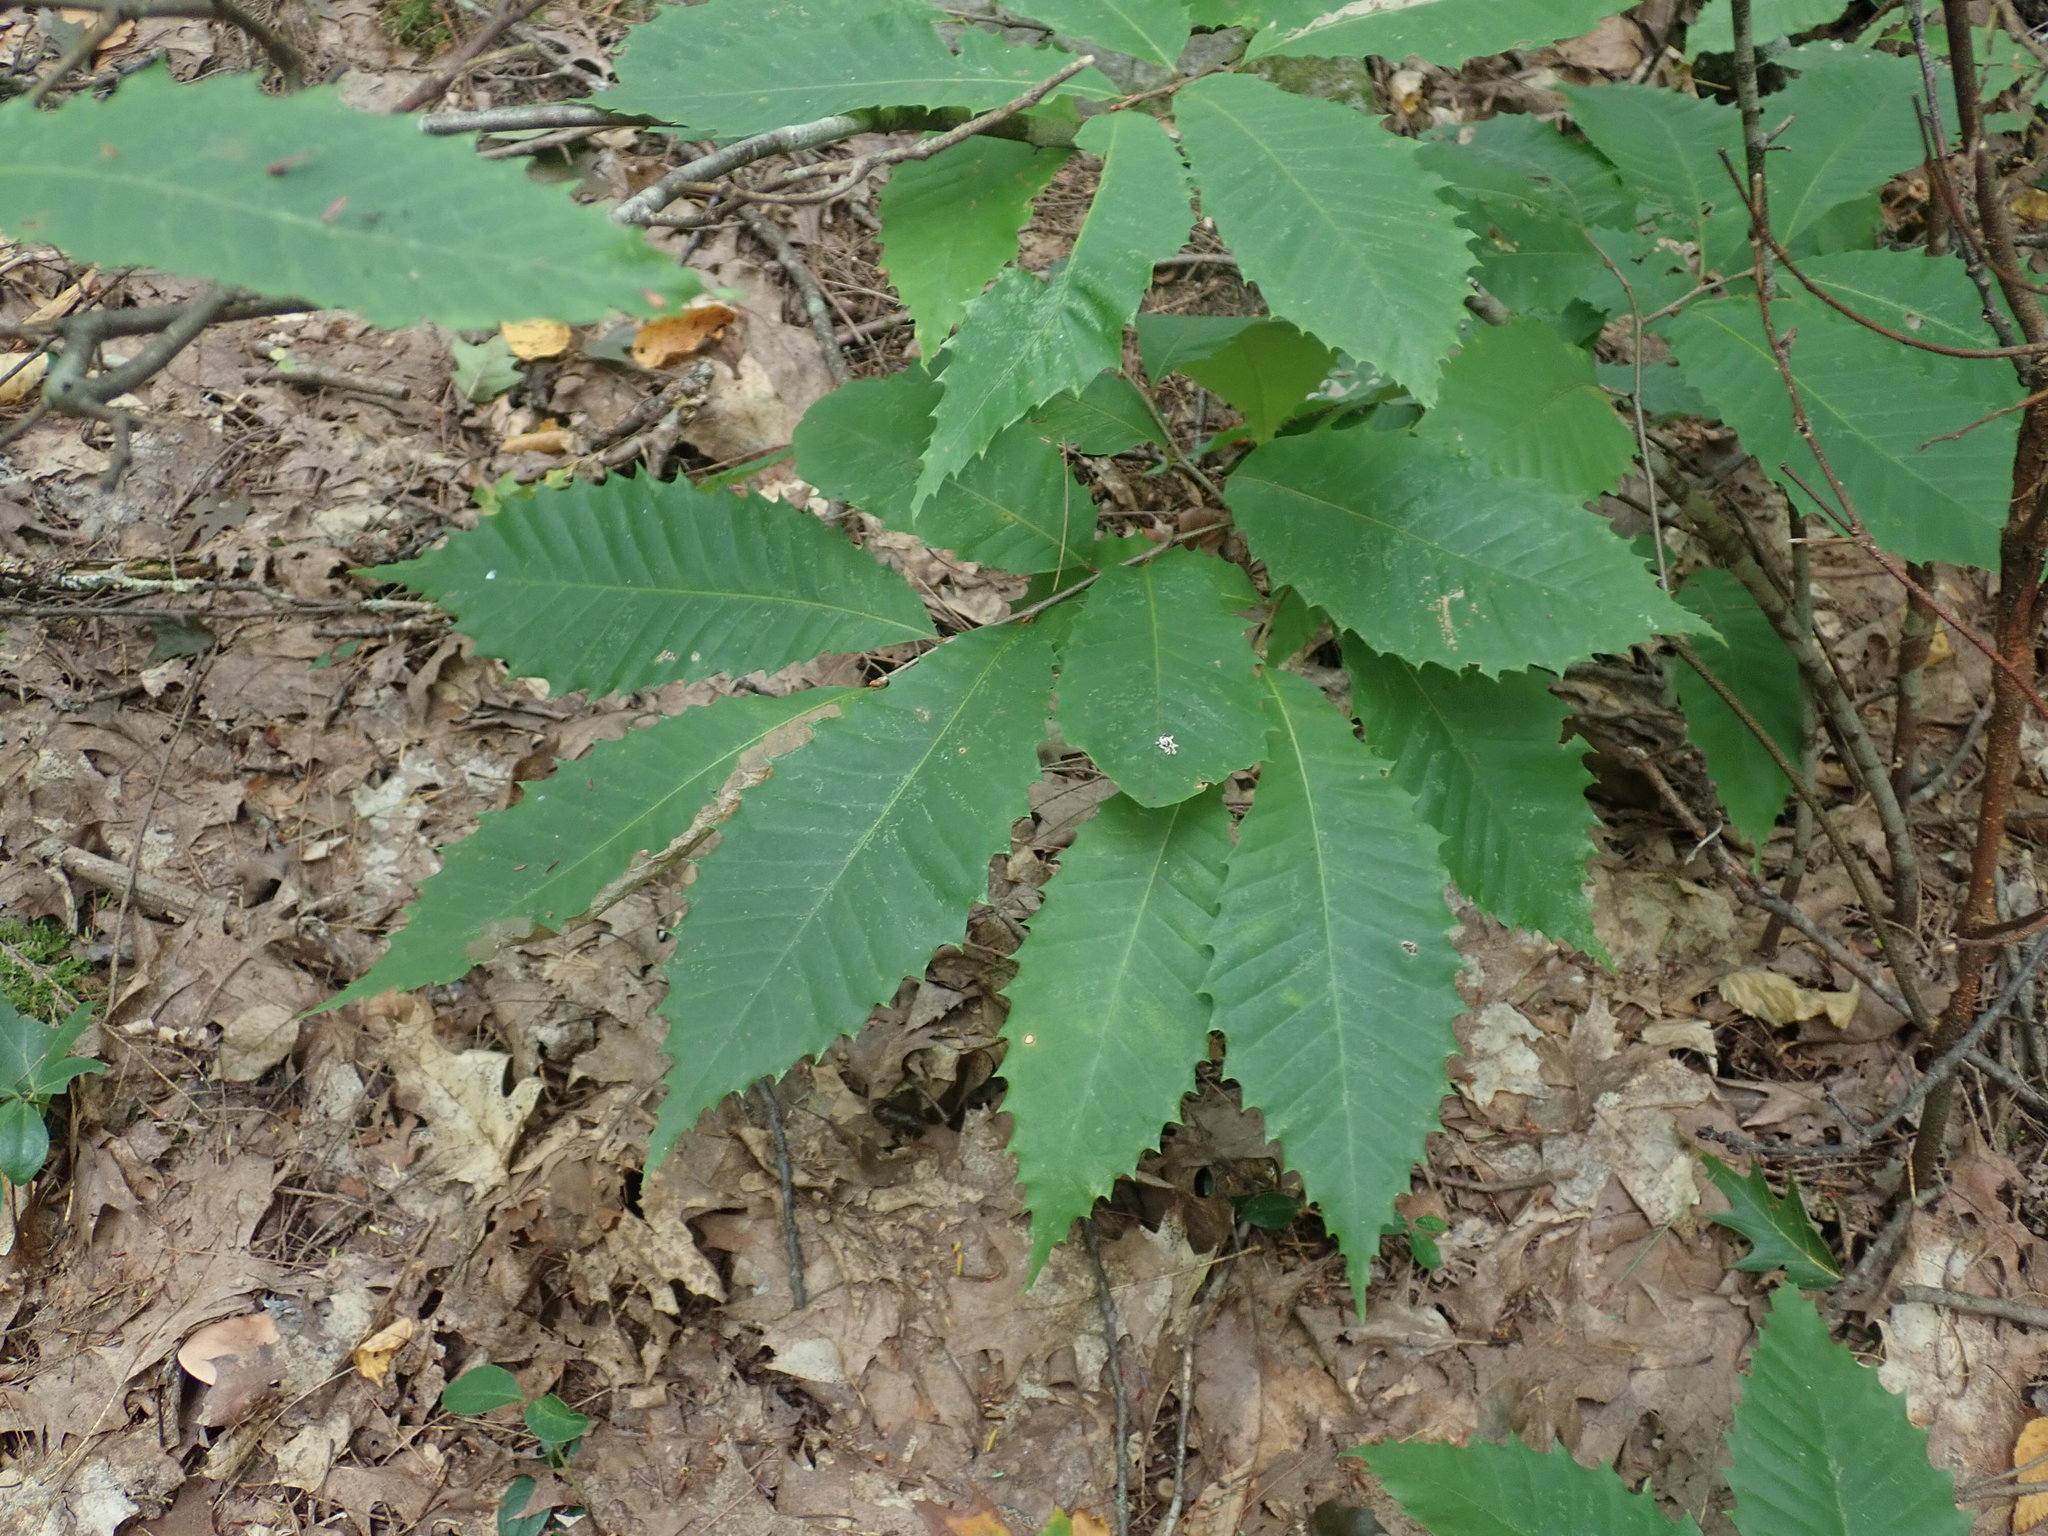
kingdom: Plantae
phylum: Tracheophyta
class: Magnoliopsida
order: Fagales
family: Fagaceae
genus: Castanea
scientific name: Castanea dentata
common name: American chestnut
